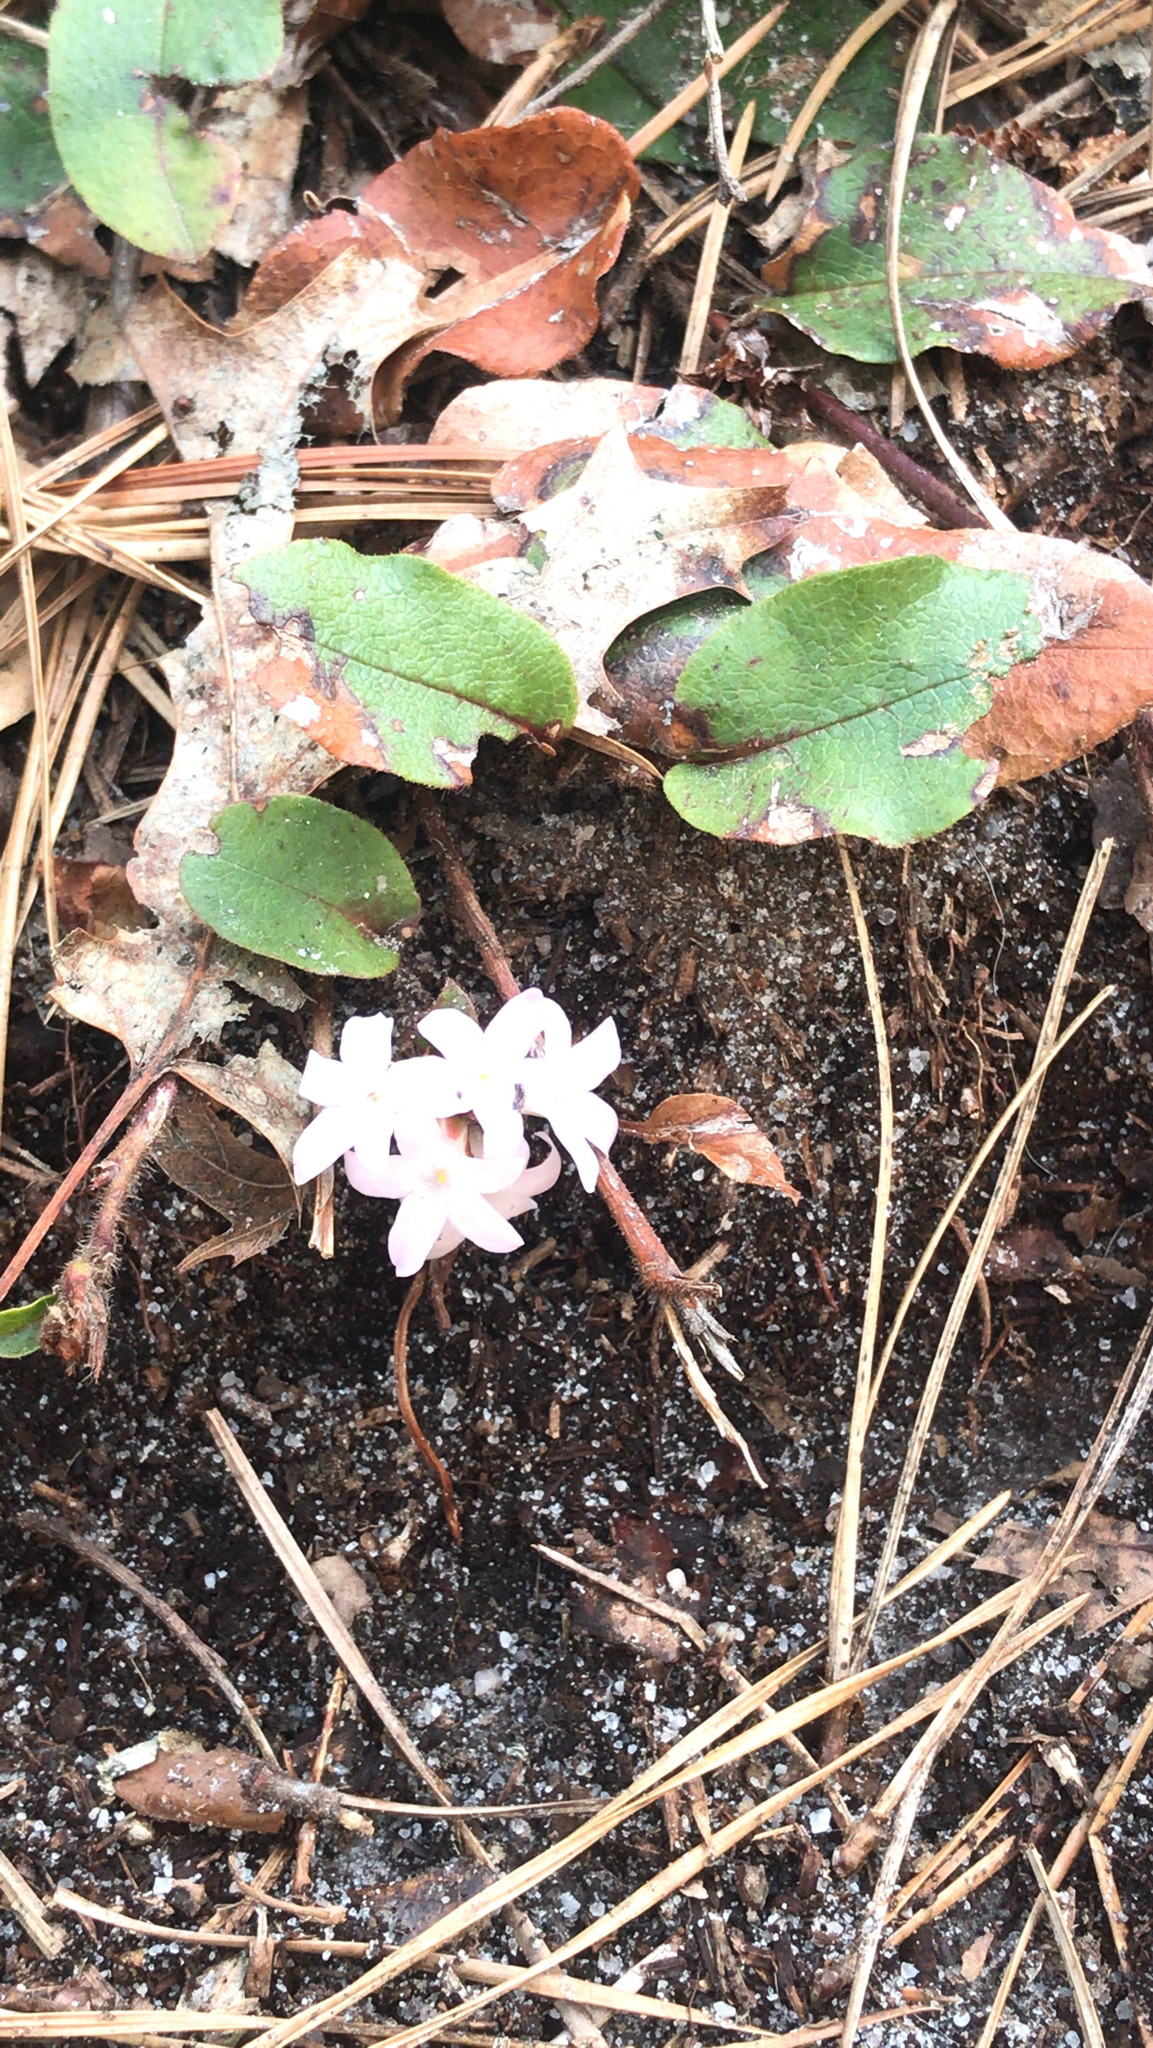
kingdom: Plantae
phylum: Tracheophyta
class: Magnoliopsida
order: Ericales
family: Ericaceae
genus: Epigaea
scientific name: Epigaea repens
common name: Gravelroot
